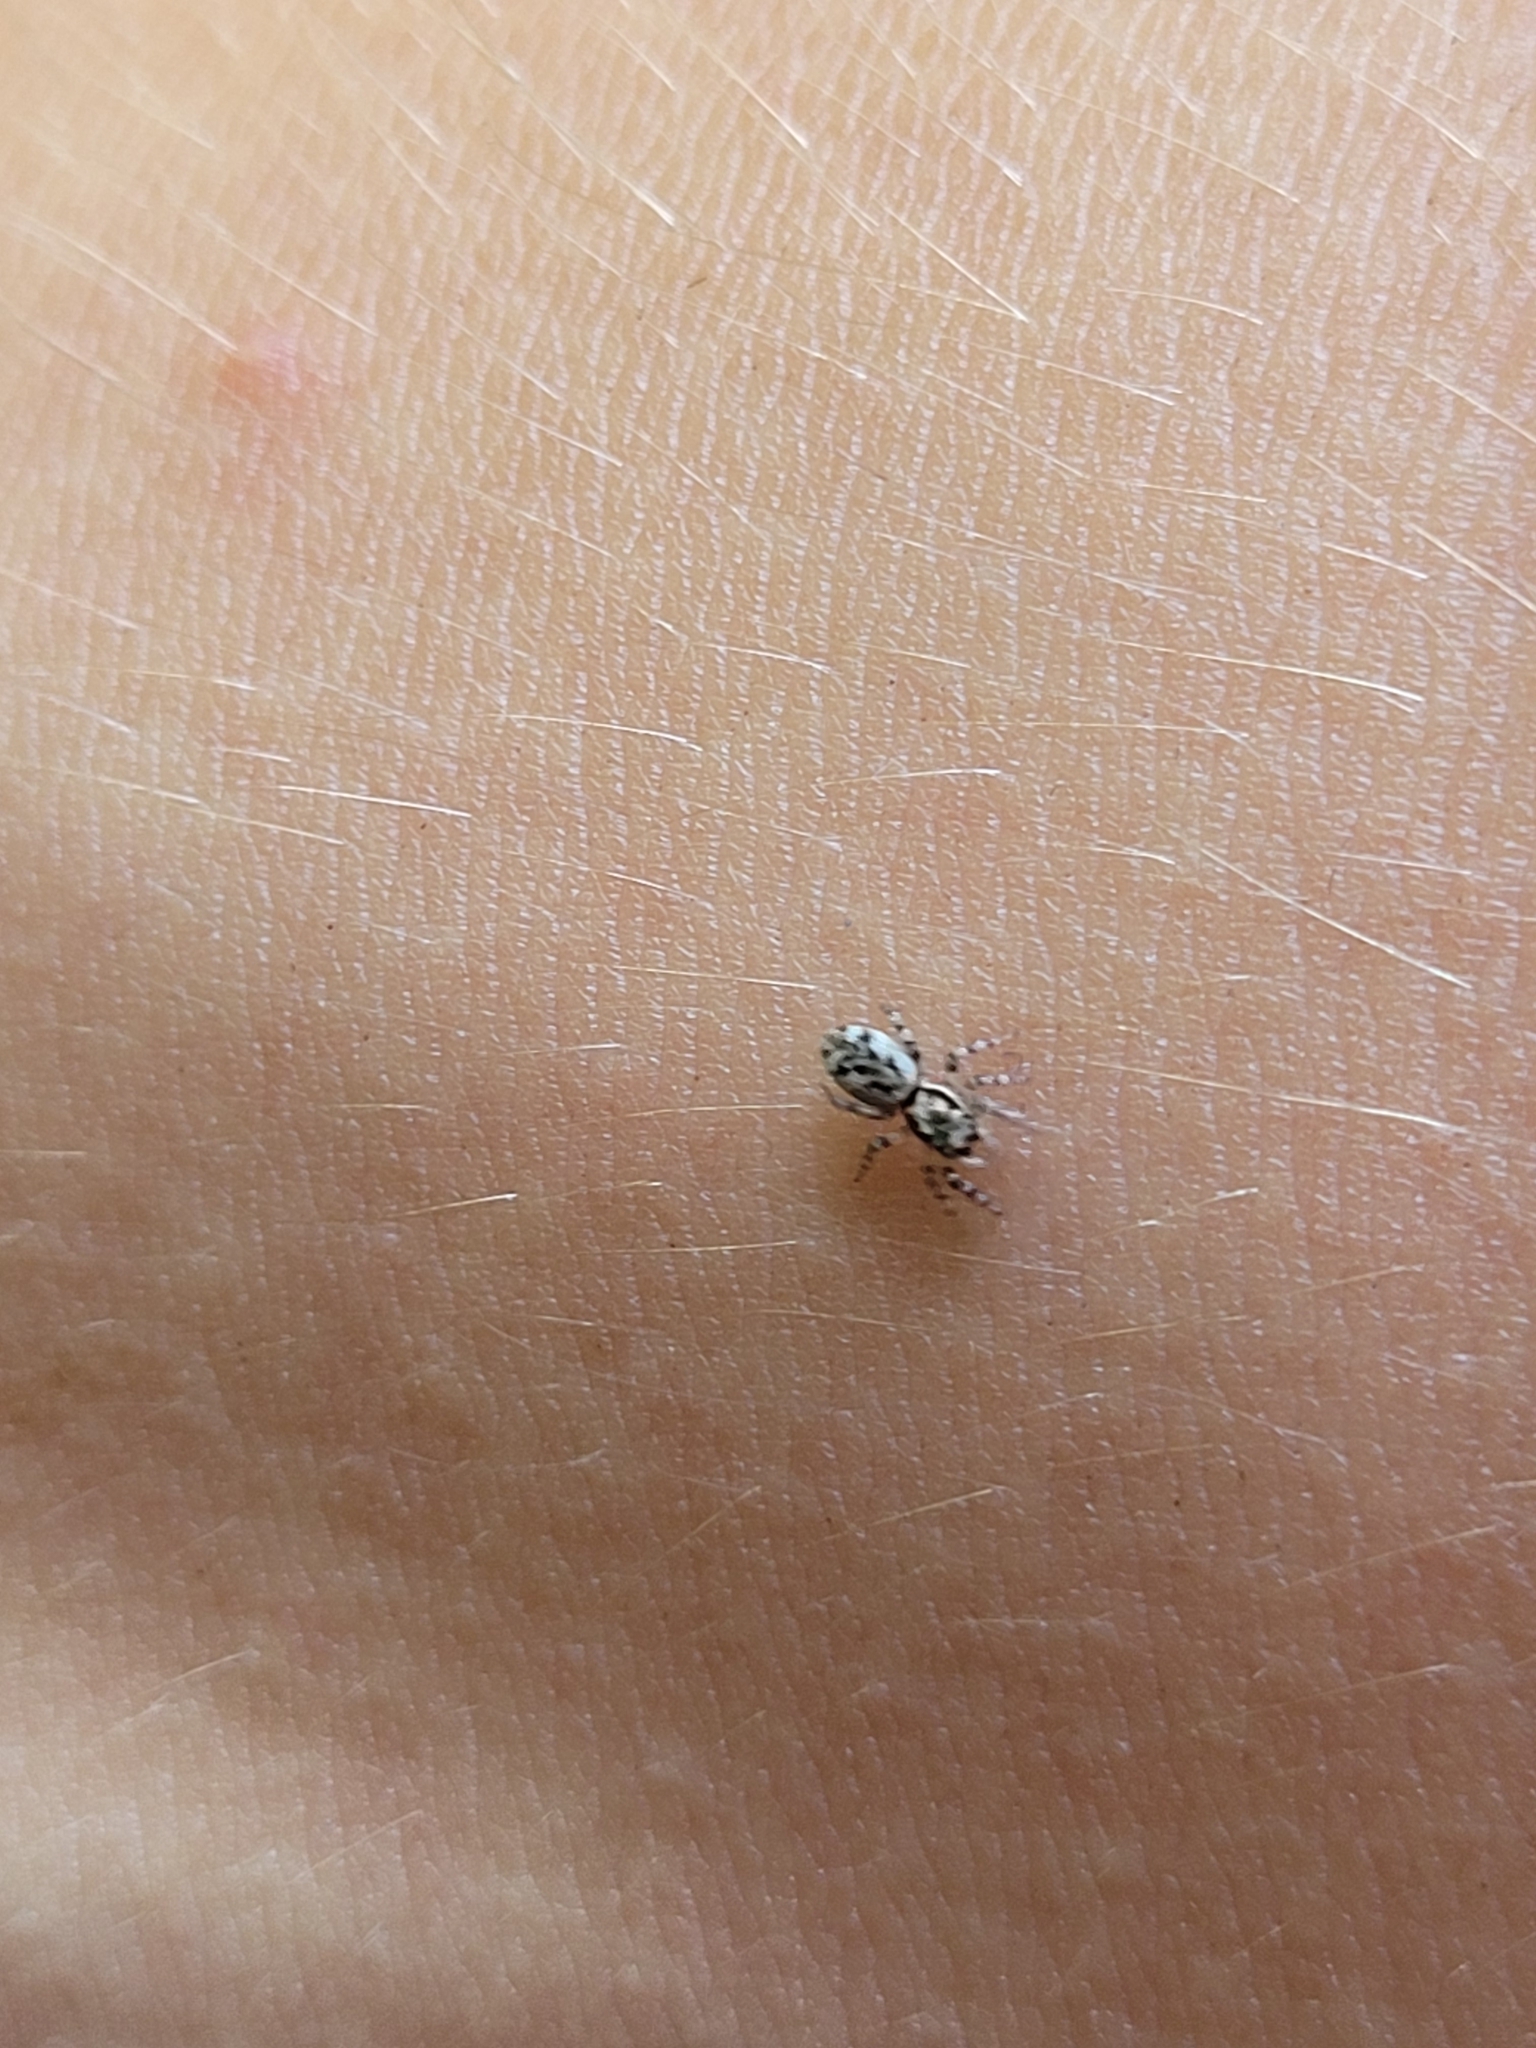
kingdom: Animalia
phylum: Arthropoda
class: Arachnida
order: Araneae
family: Salticidae
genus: Salticus
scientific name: Salticus cingulatus
